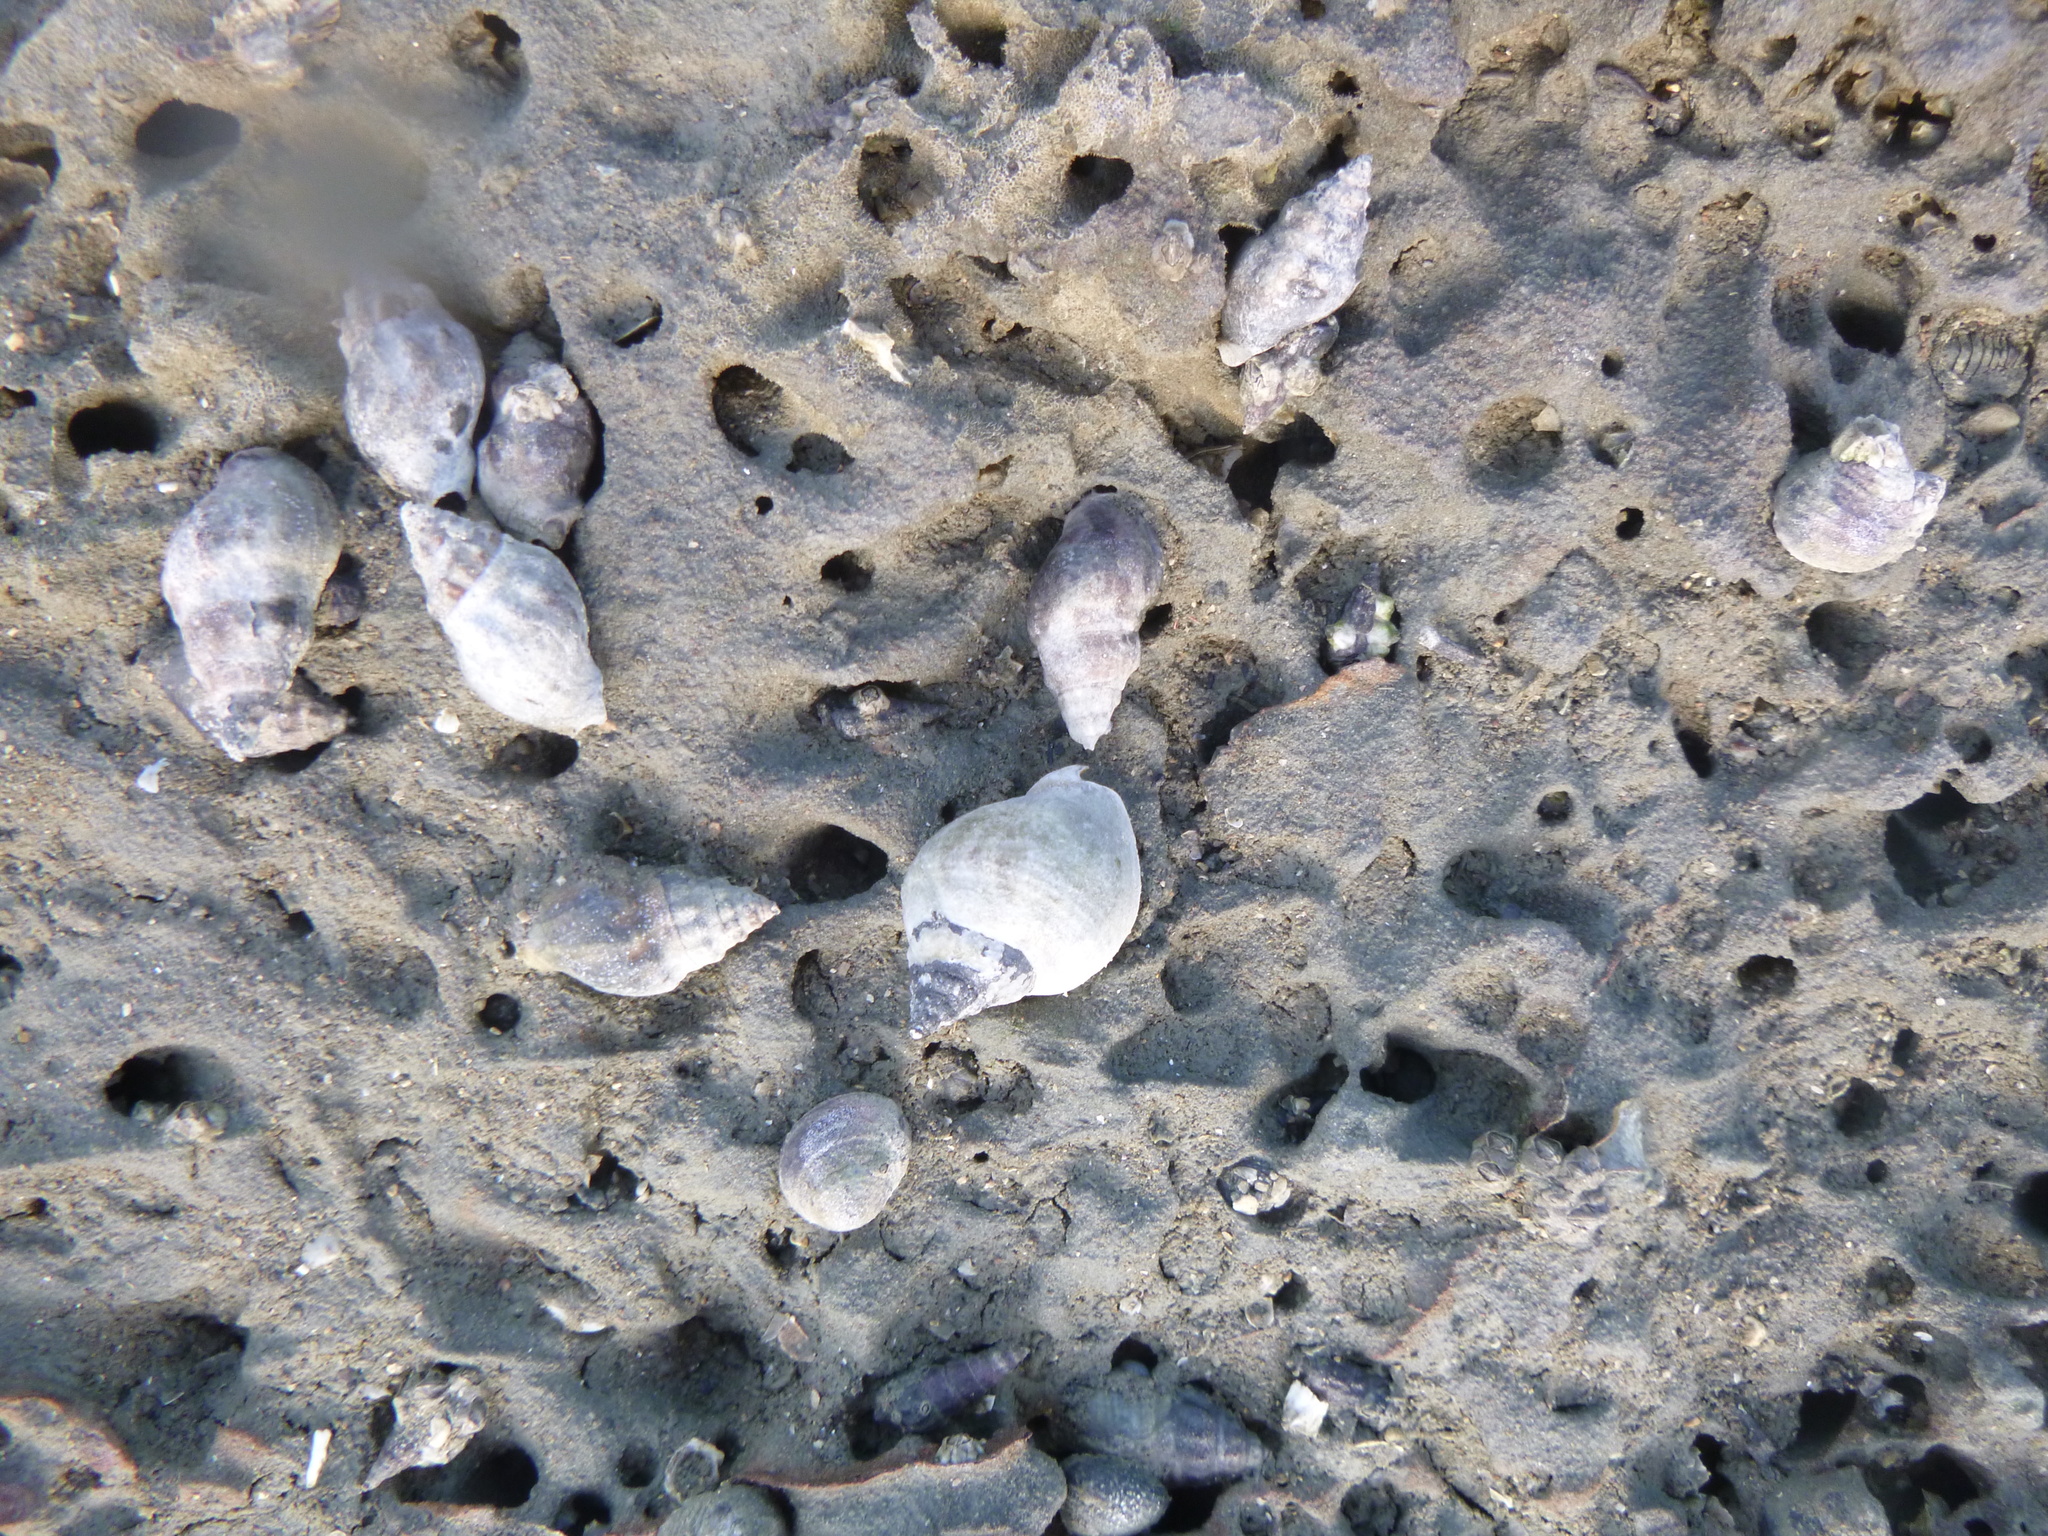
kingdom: Animalia
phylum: Mollusca
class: Gastropoda
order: Neogastropoda
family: Cominellidae
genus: Cominella
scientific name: Cominella glandiformis
